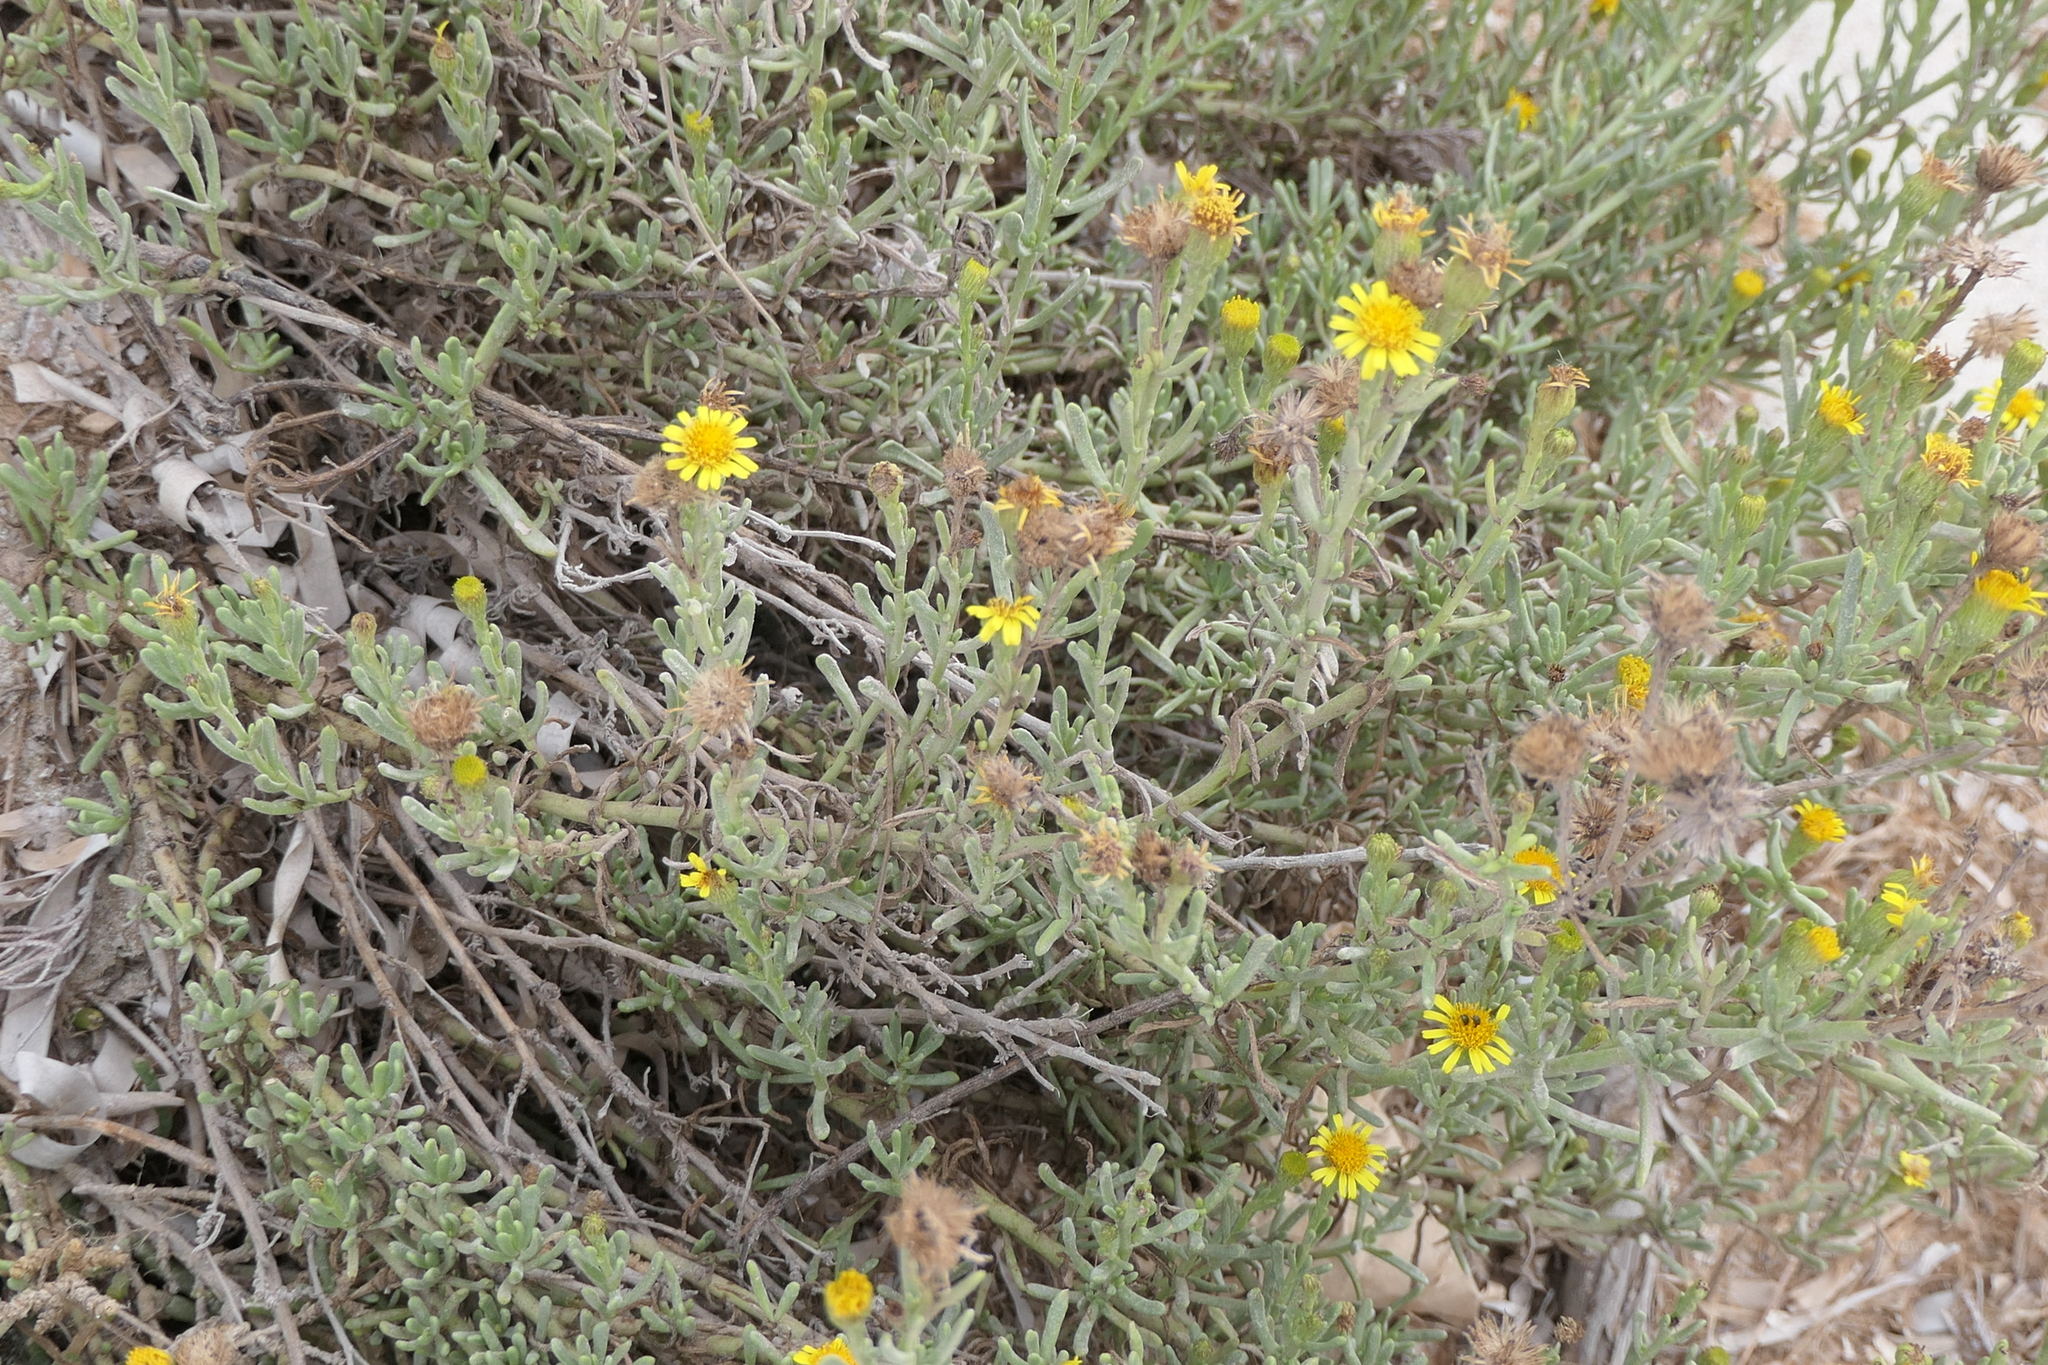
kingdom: Plantae
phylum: Tracheophyta
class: Magnoliopsida
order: Asterales
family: Asteraceae
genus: Limbarda
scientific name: Limbarda crithmoides
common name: Golden samphire
